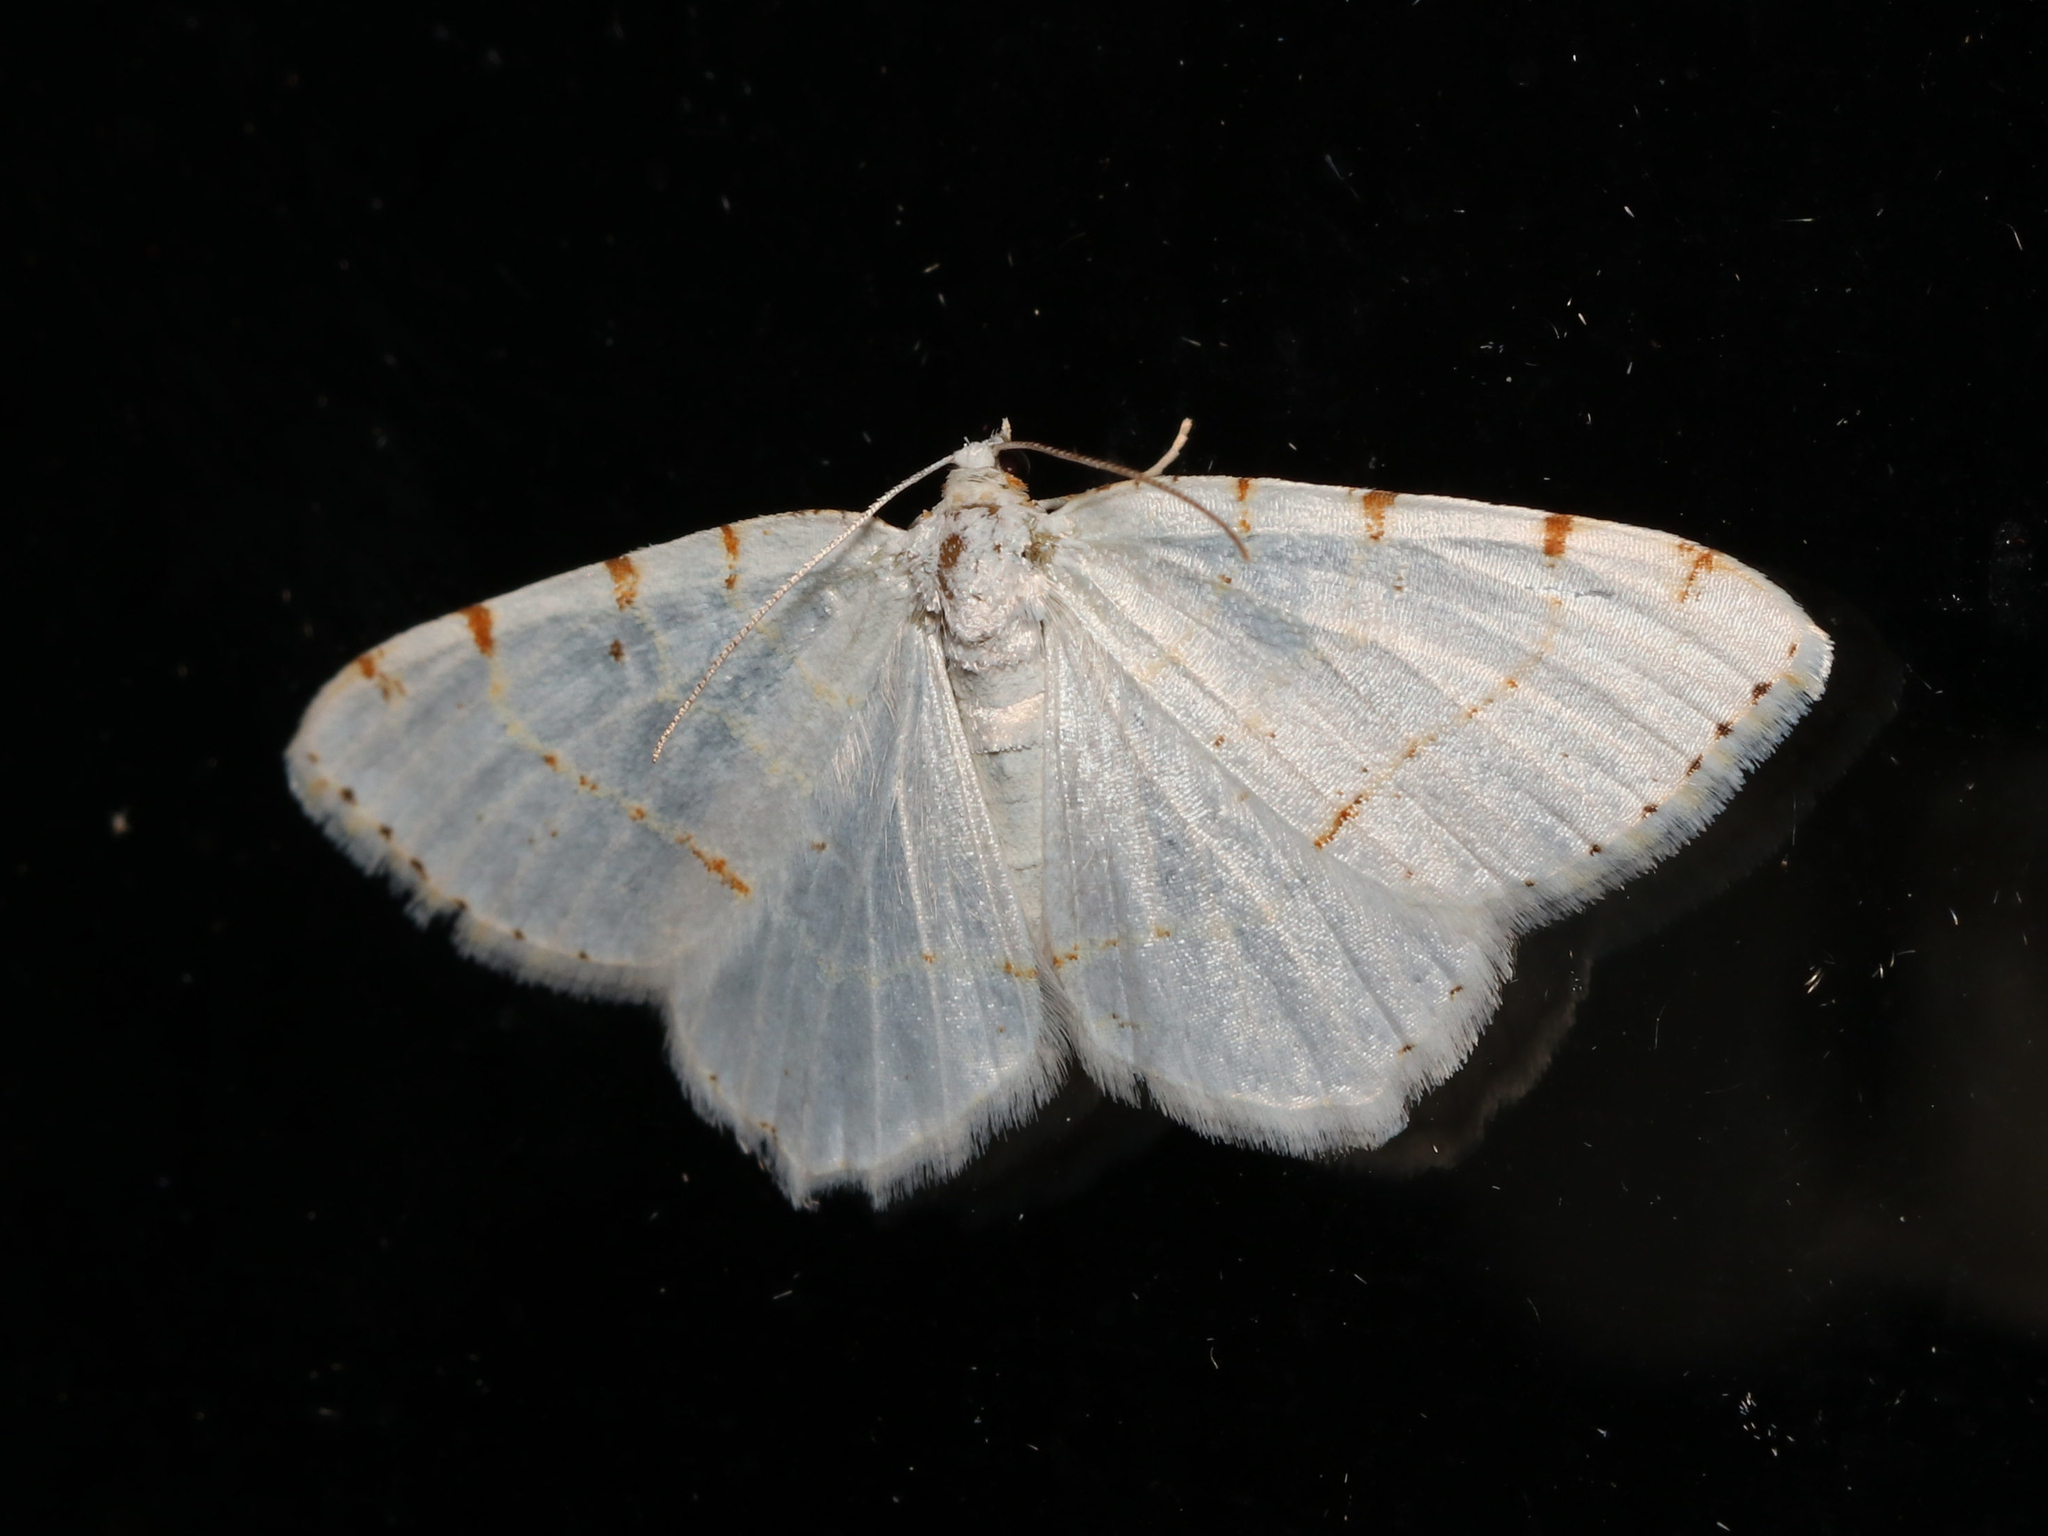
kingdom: Animalia
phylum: Arthropoda
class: Insecta
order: Lepidoptera
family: Geometridae
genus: Macaria
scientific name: Macaria pustularia
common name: Lesser maple spanworm moth
